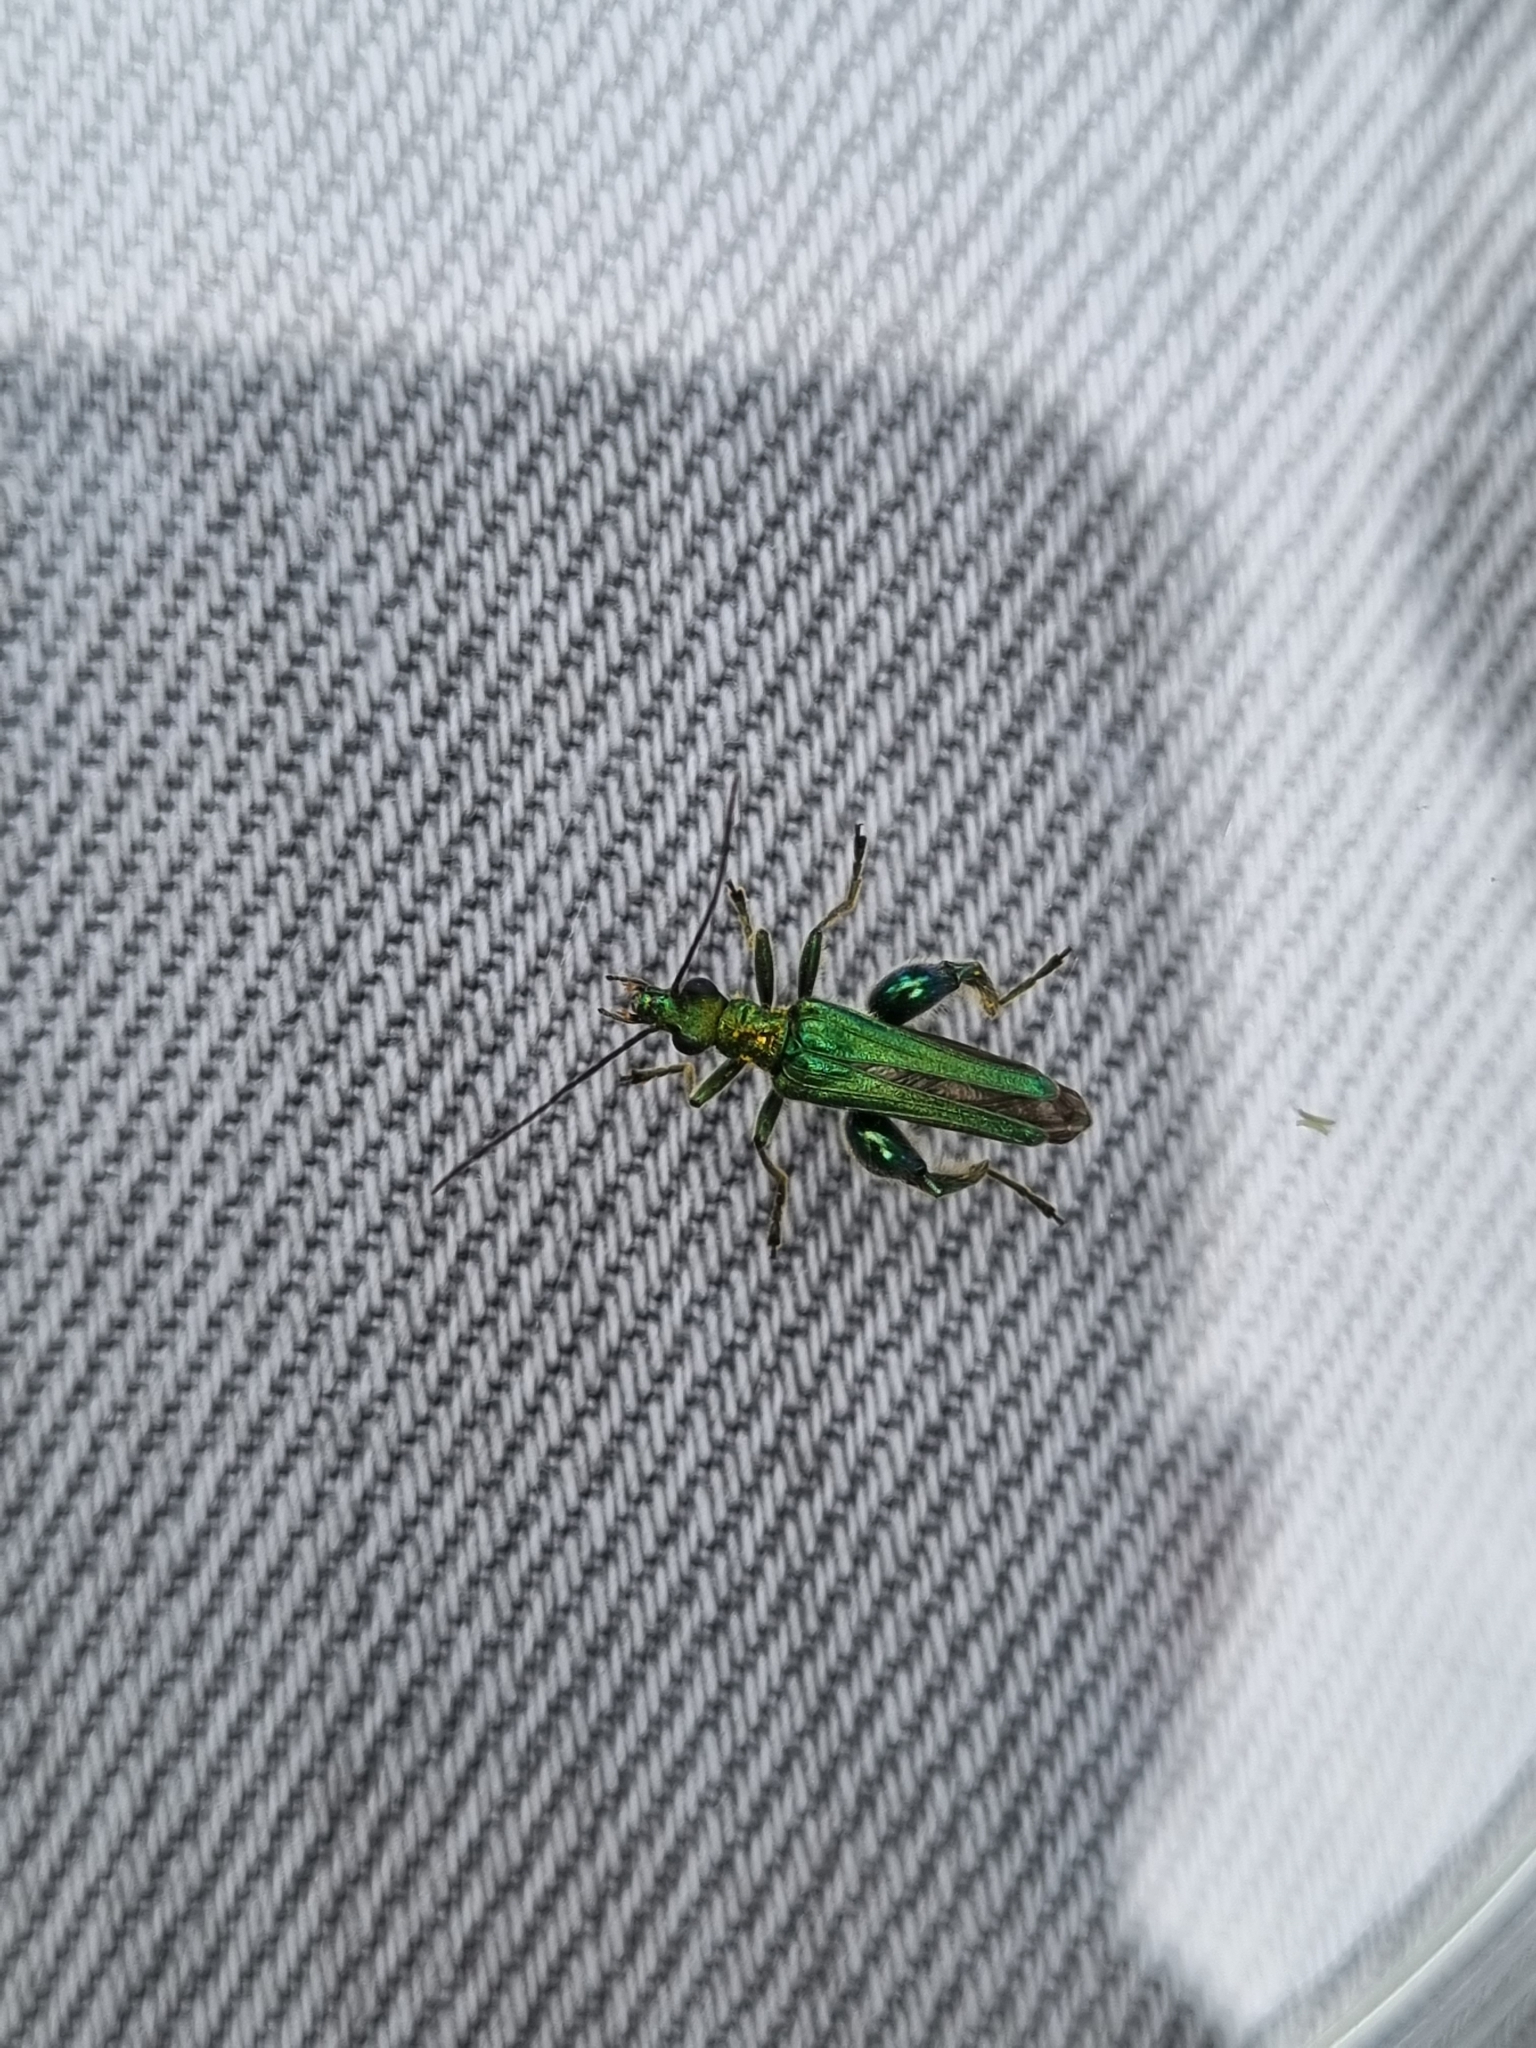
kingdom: Animalia
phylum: Arthropoda
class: Insecta
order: Coleoptera
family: Oedemeridae
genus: Oedemera
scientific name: Oedemera nobilis
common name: Swollen-thighed beetle
